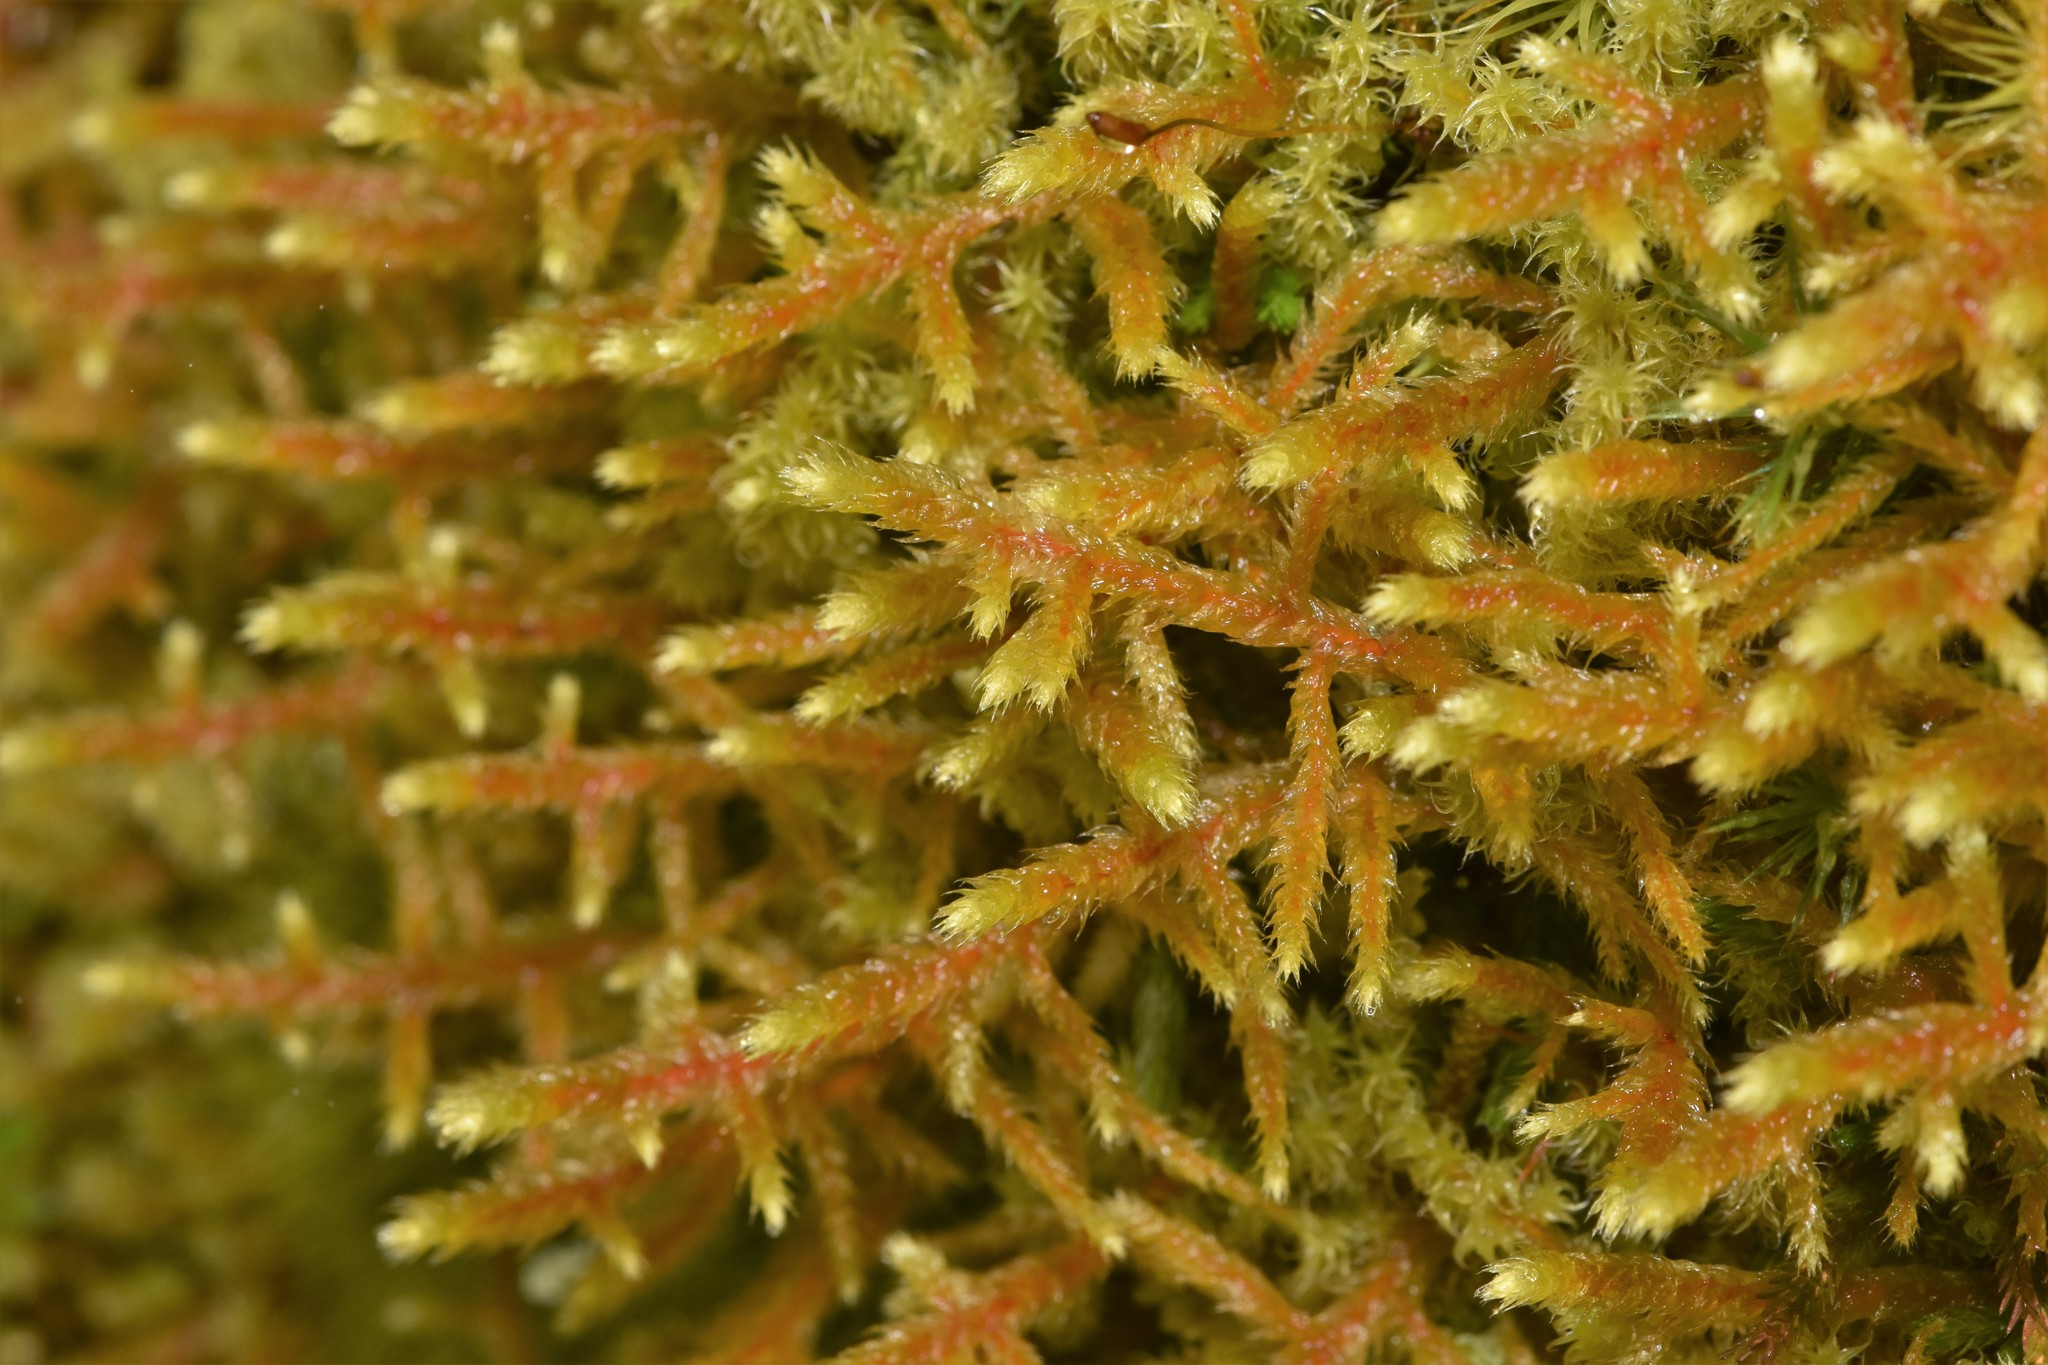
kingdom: Plantae
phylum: Bryophyta
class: Bryopsida
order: Hypnales
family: Antitrichiaceae
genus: Antitrichia
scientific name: Antitrichia curtipendula
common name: Pendulous wing-moss
